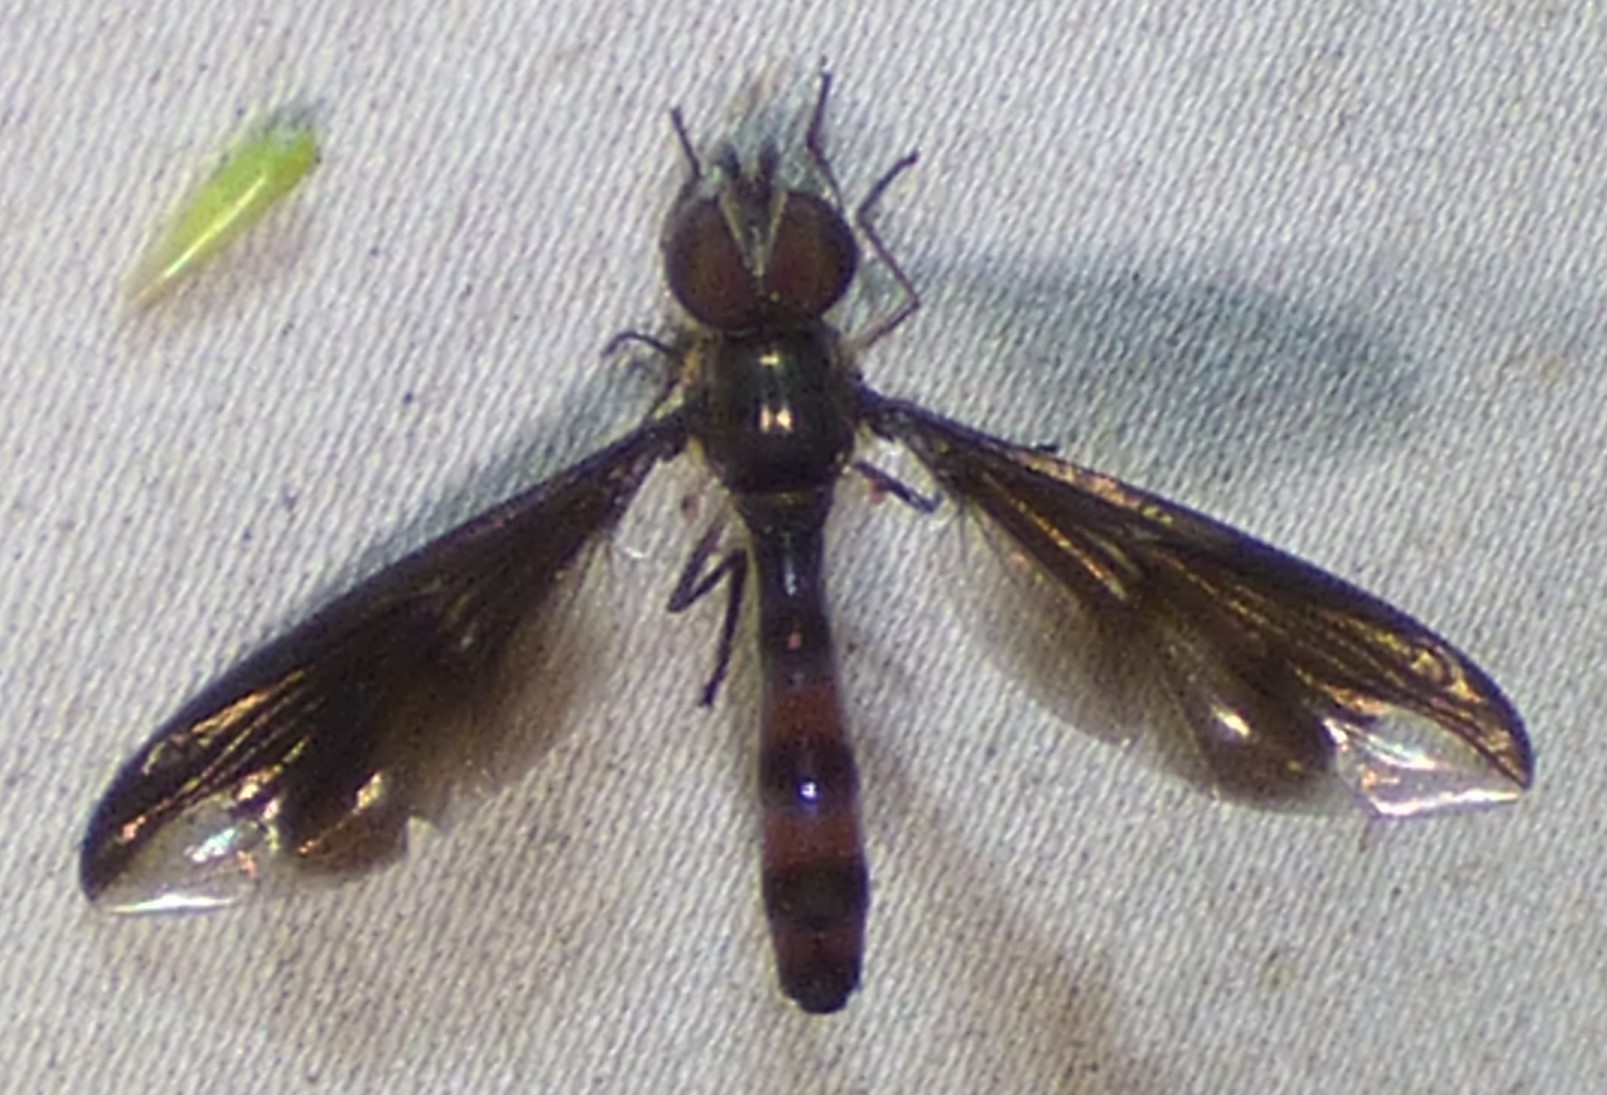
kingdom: Animalia
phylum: Arthropoda
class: Insecta
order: Diptera
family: Syrphidae
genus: Ocyptamus
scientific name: Ocyptamus fuscipennis
